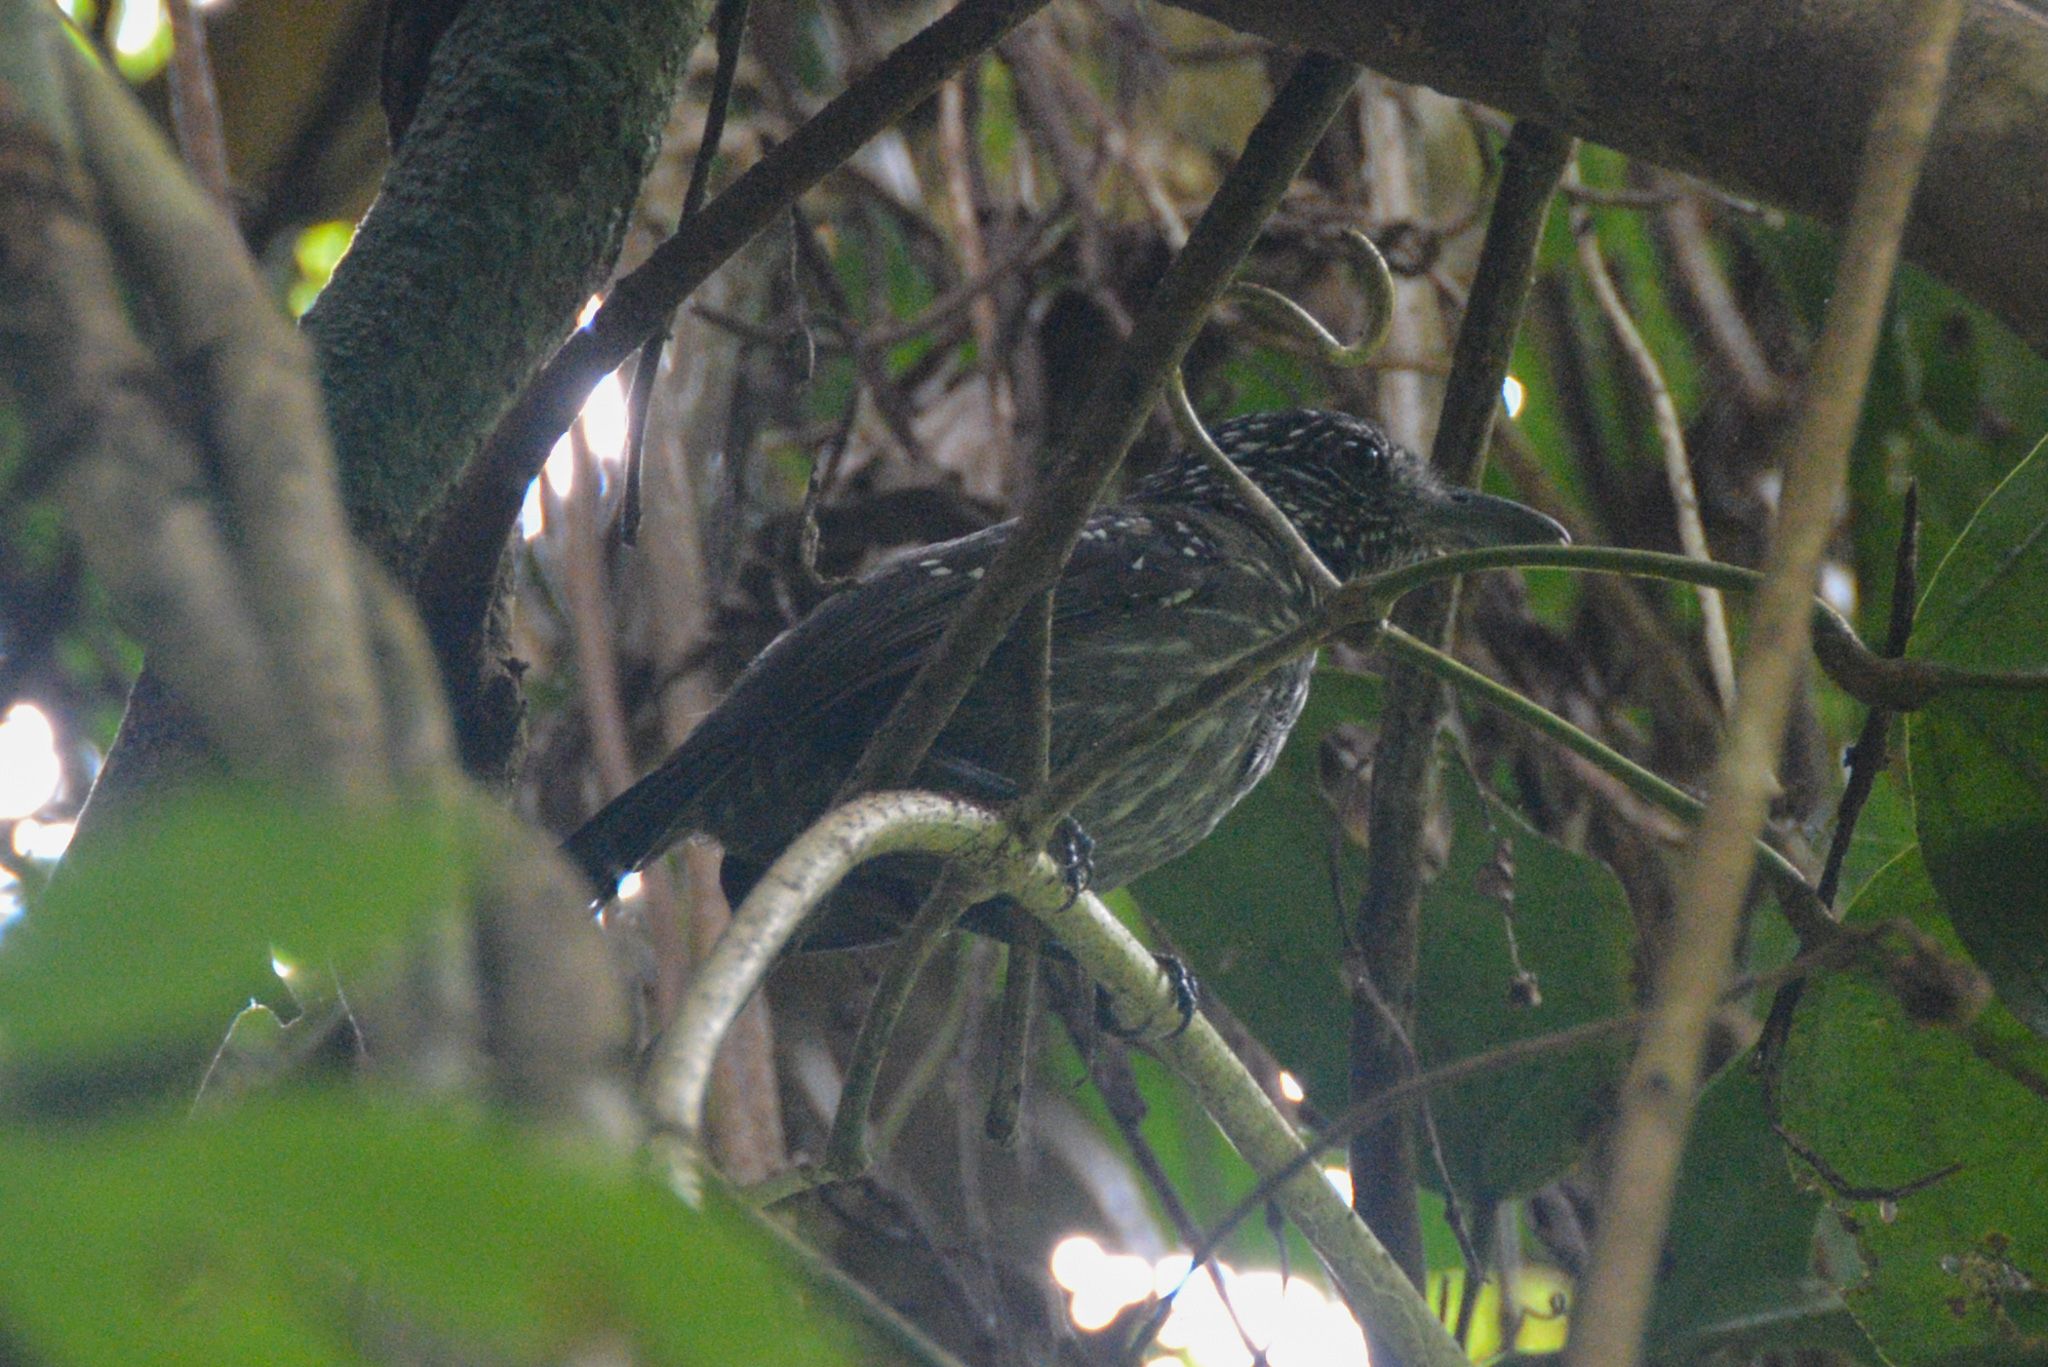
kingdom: Animalia
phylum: Chordata
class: Aves
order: Passeriformes
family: Thamnophilidae
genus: Thamnophilus
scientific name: Thamnophilus bridgesi
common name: Black-hooded antshrike
